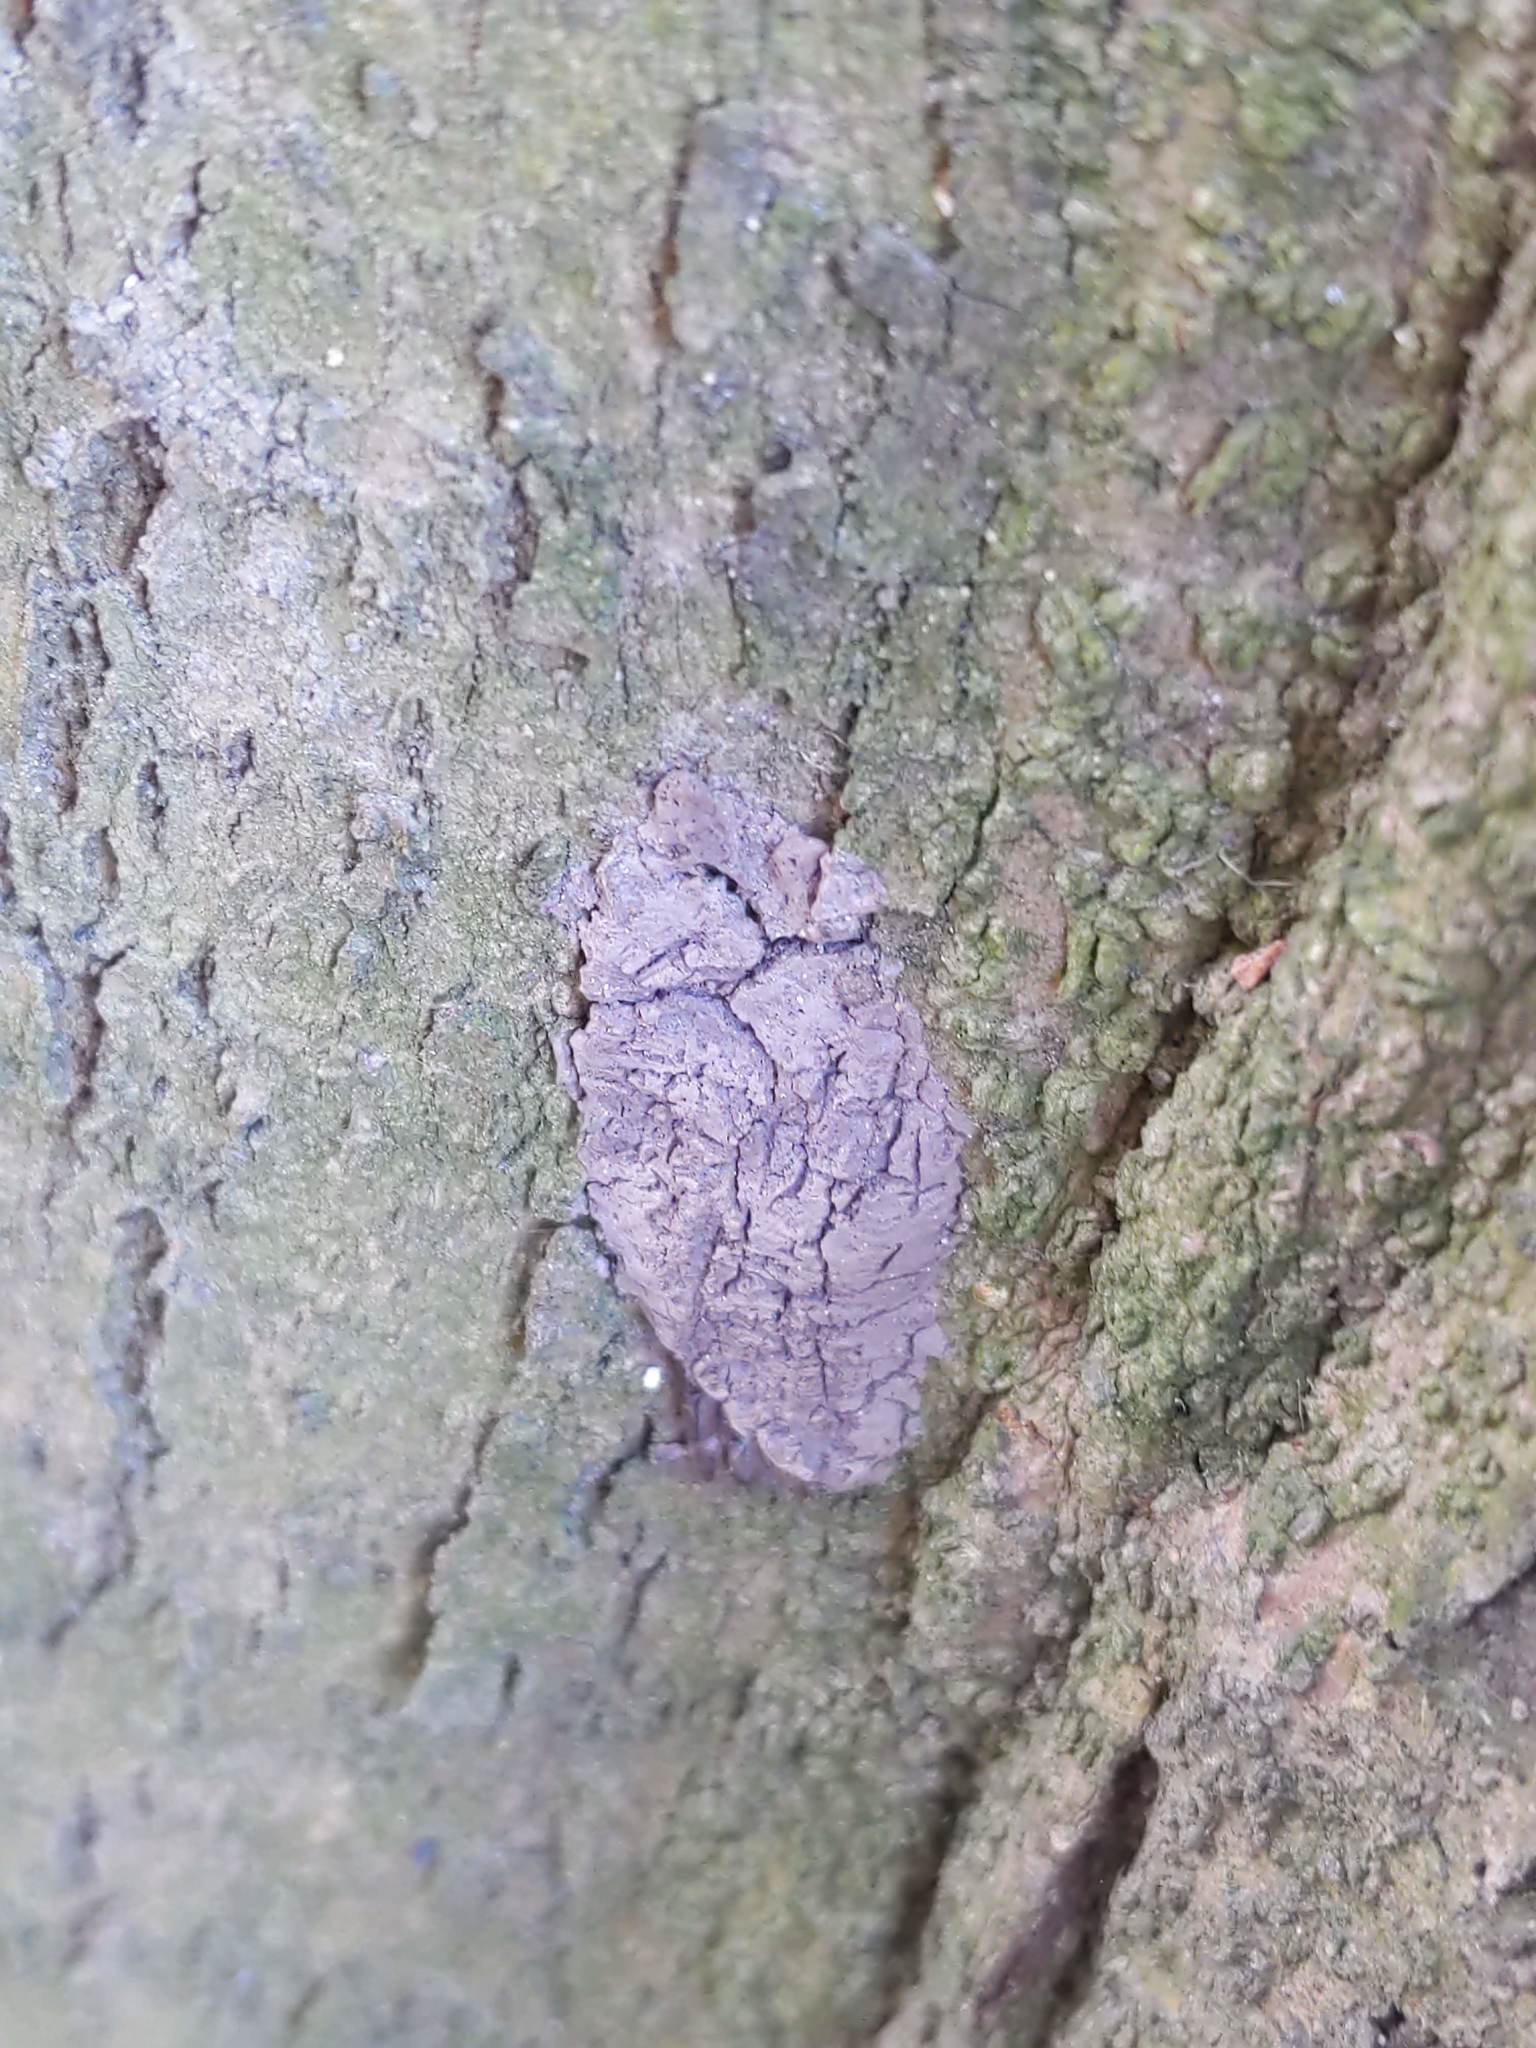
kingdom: Animalia
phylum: Arthropoda
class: Insecta
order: Hemiptera
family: Fulgoridae
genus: Lycorma
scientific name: Lycorma delicatula
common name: Spotted lanternfly
